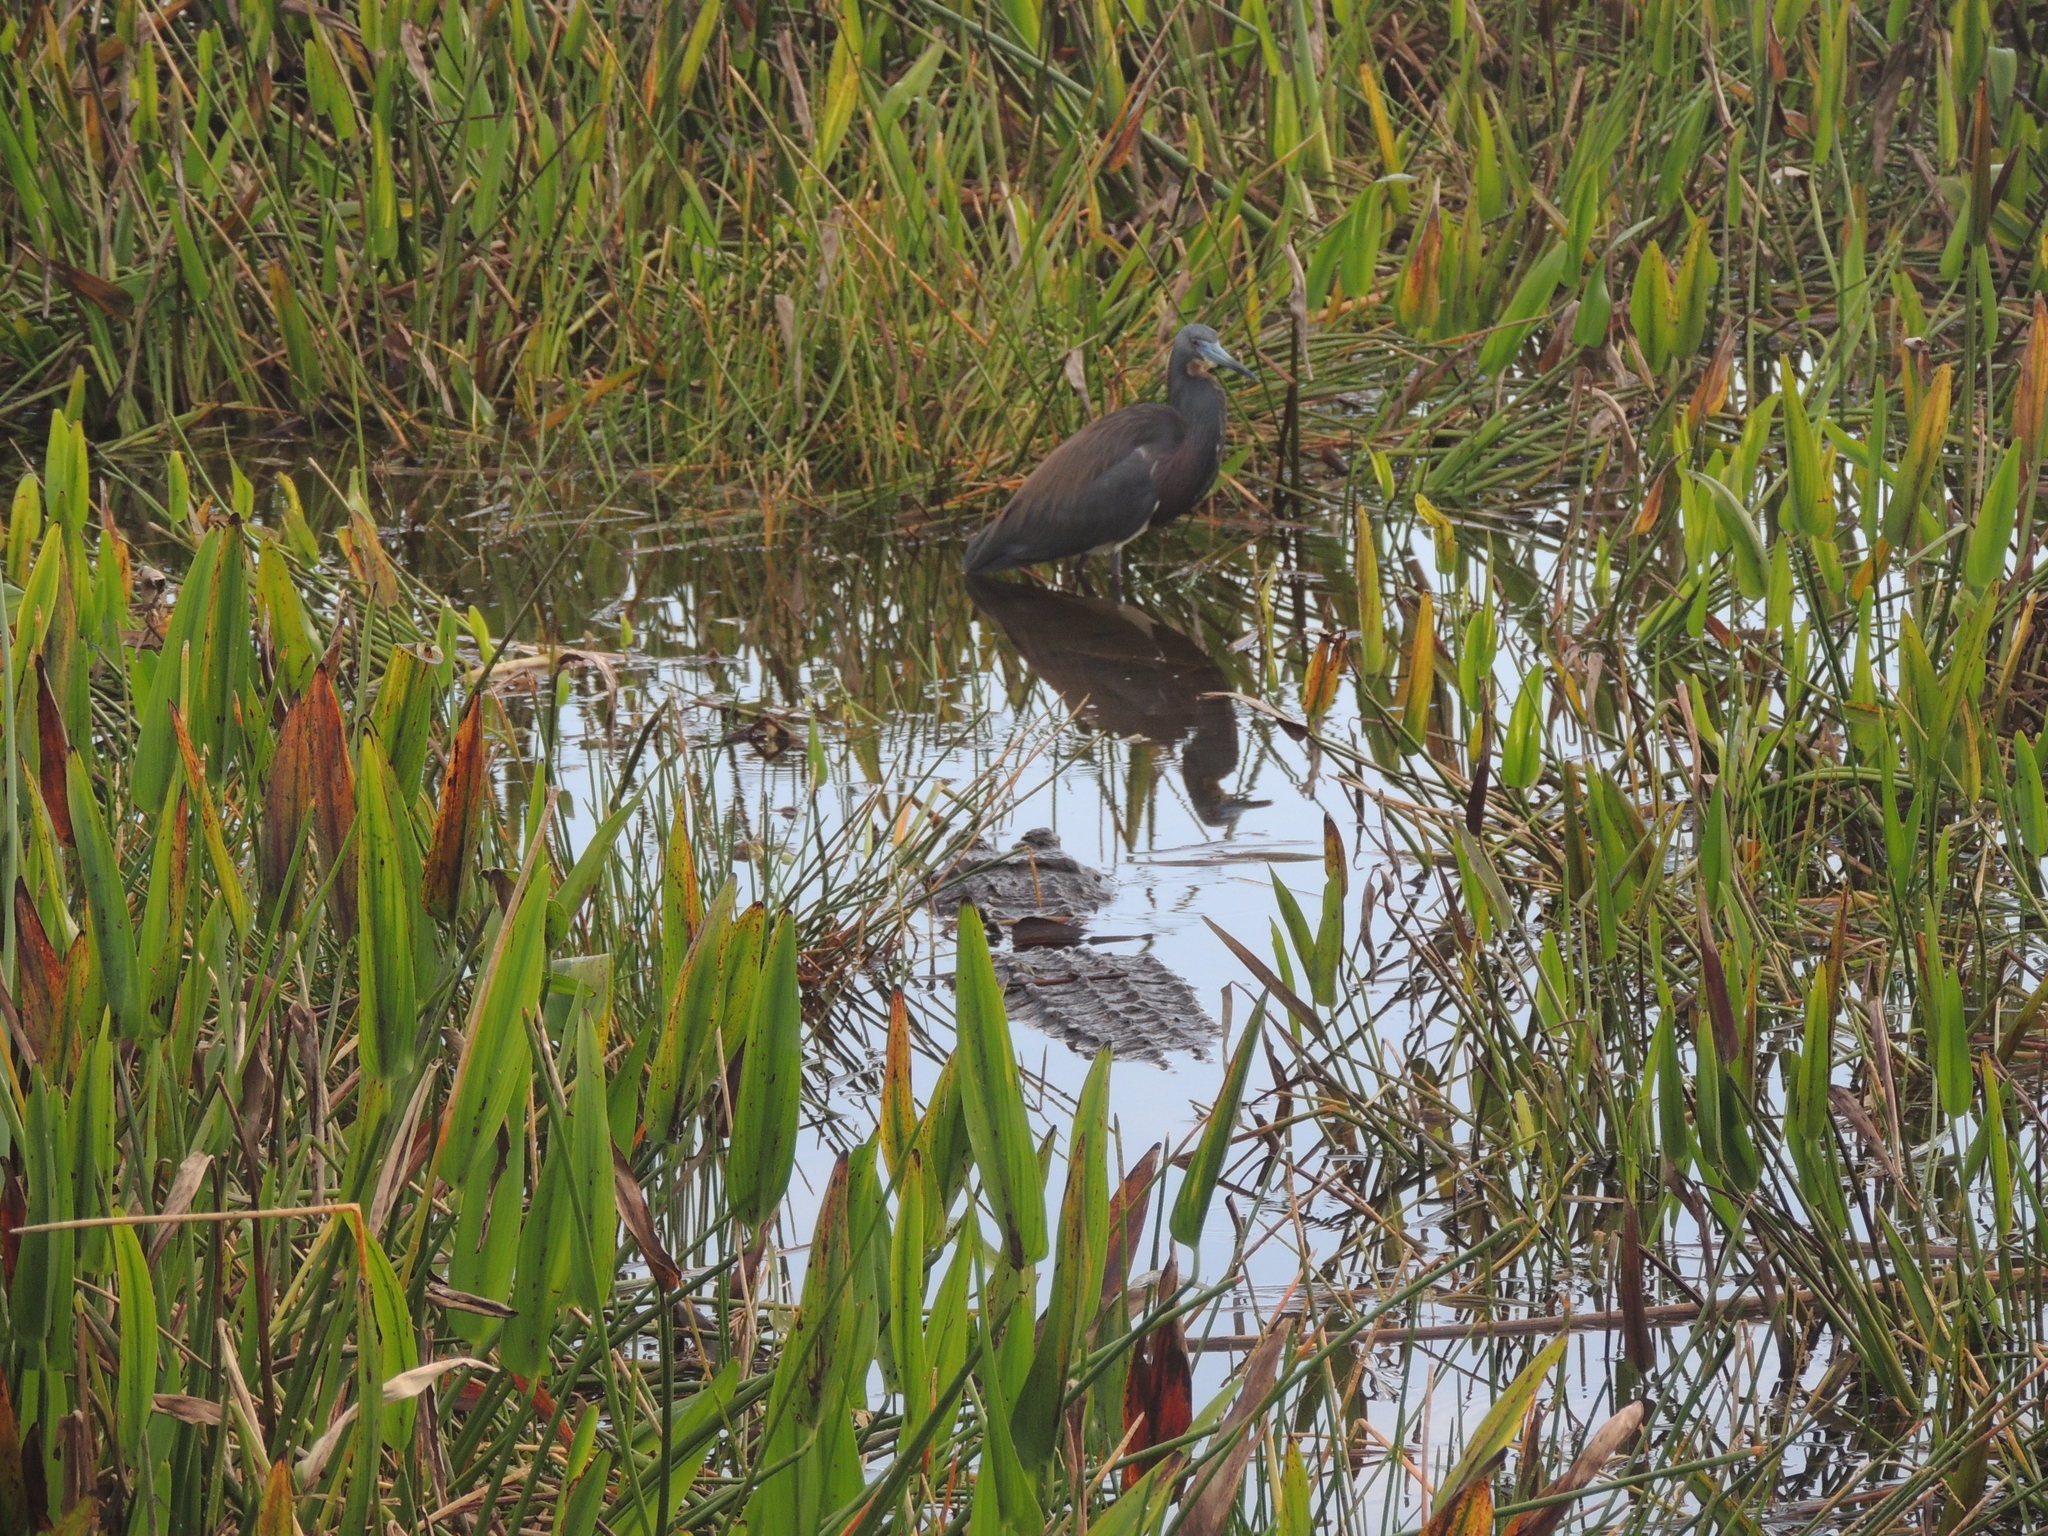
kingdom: Animalia
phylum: Chordata
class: Aves
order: Pelecaniformes
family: Ardeidae
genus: Egretta
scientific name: Egretta tricolor
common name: Tricolored heron
